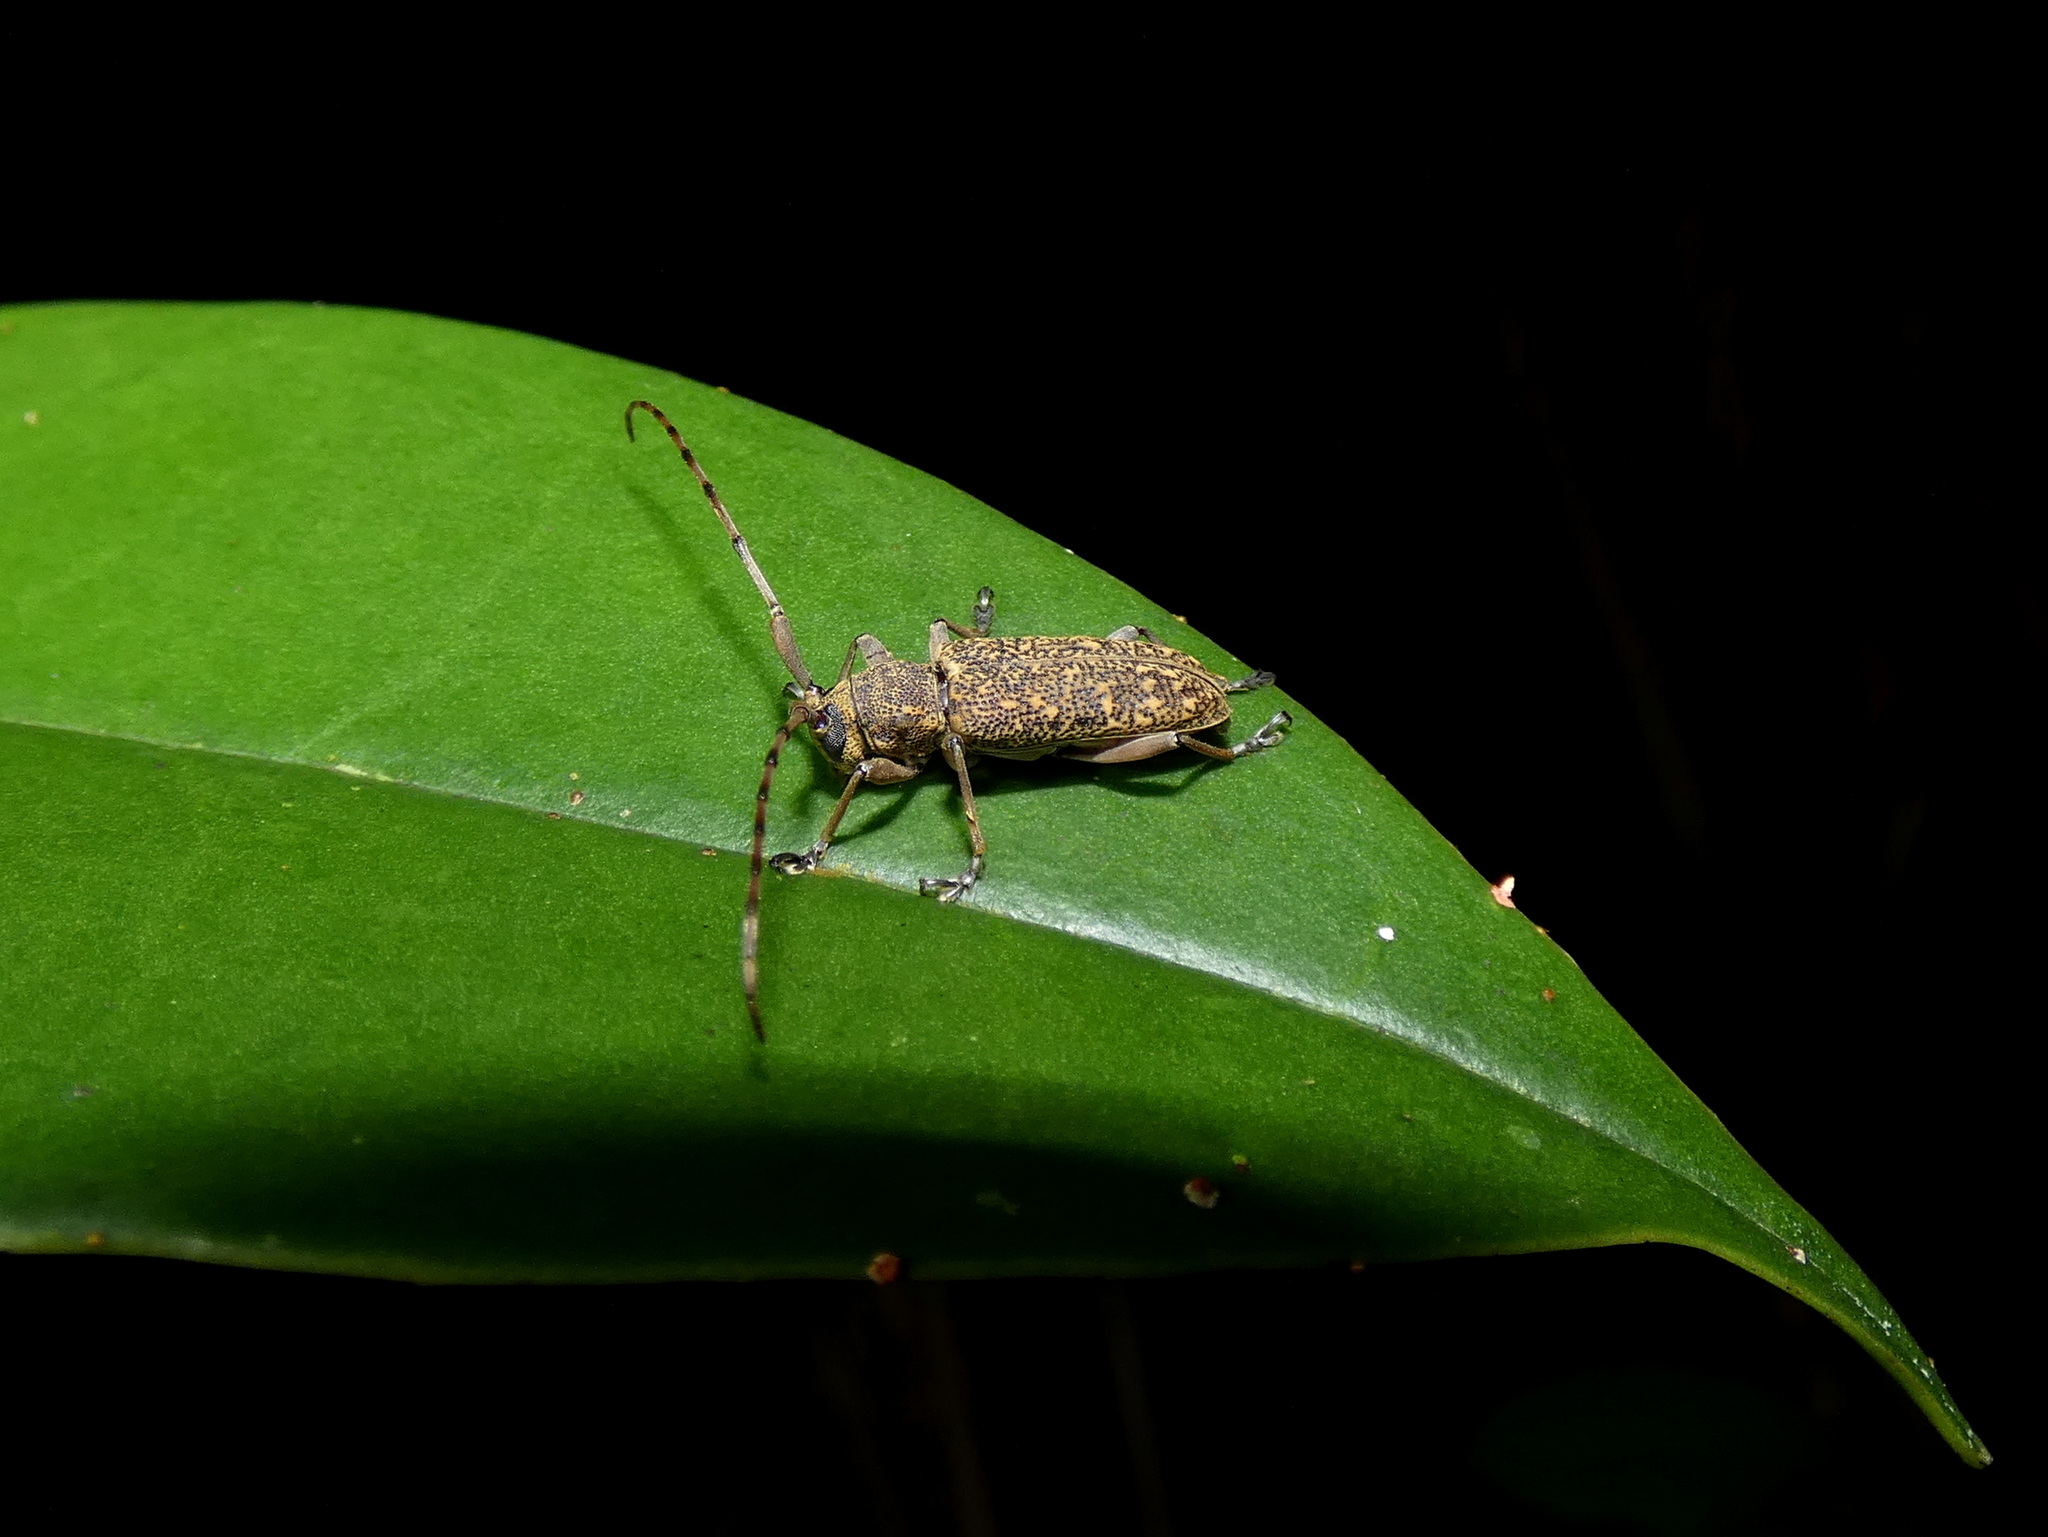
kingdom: Animalia
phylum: Arthropoda
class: Insecta
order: Coleoptera
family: Cerambycidae
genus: Granulorsidis
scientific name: Granulorsidis
